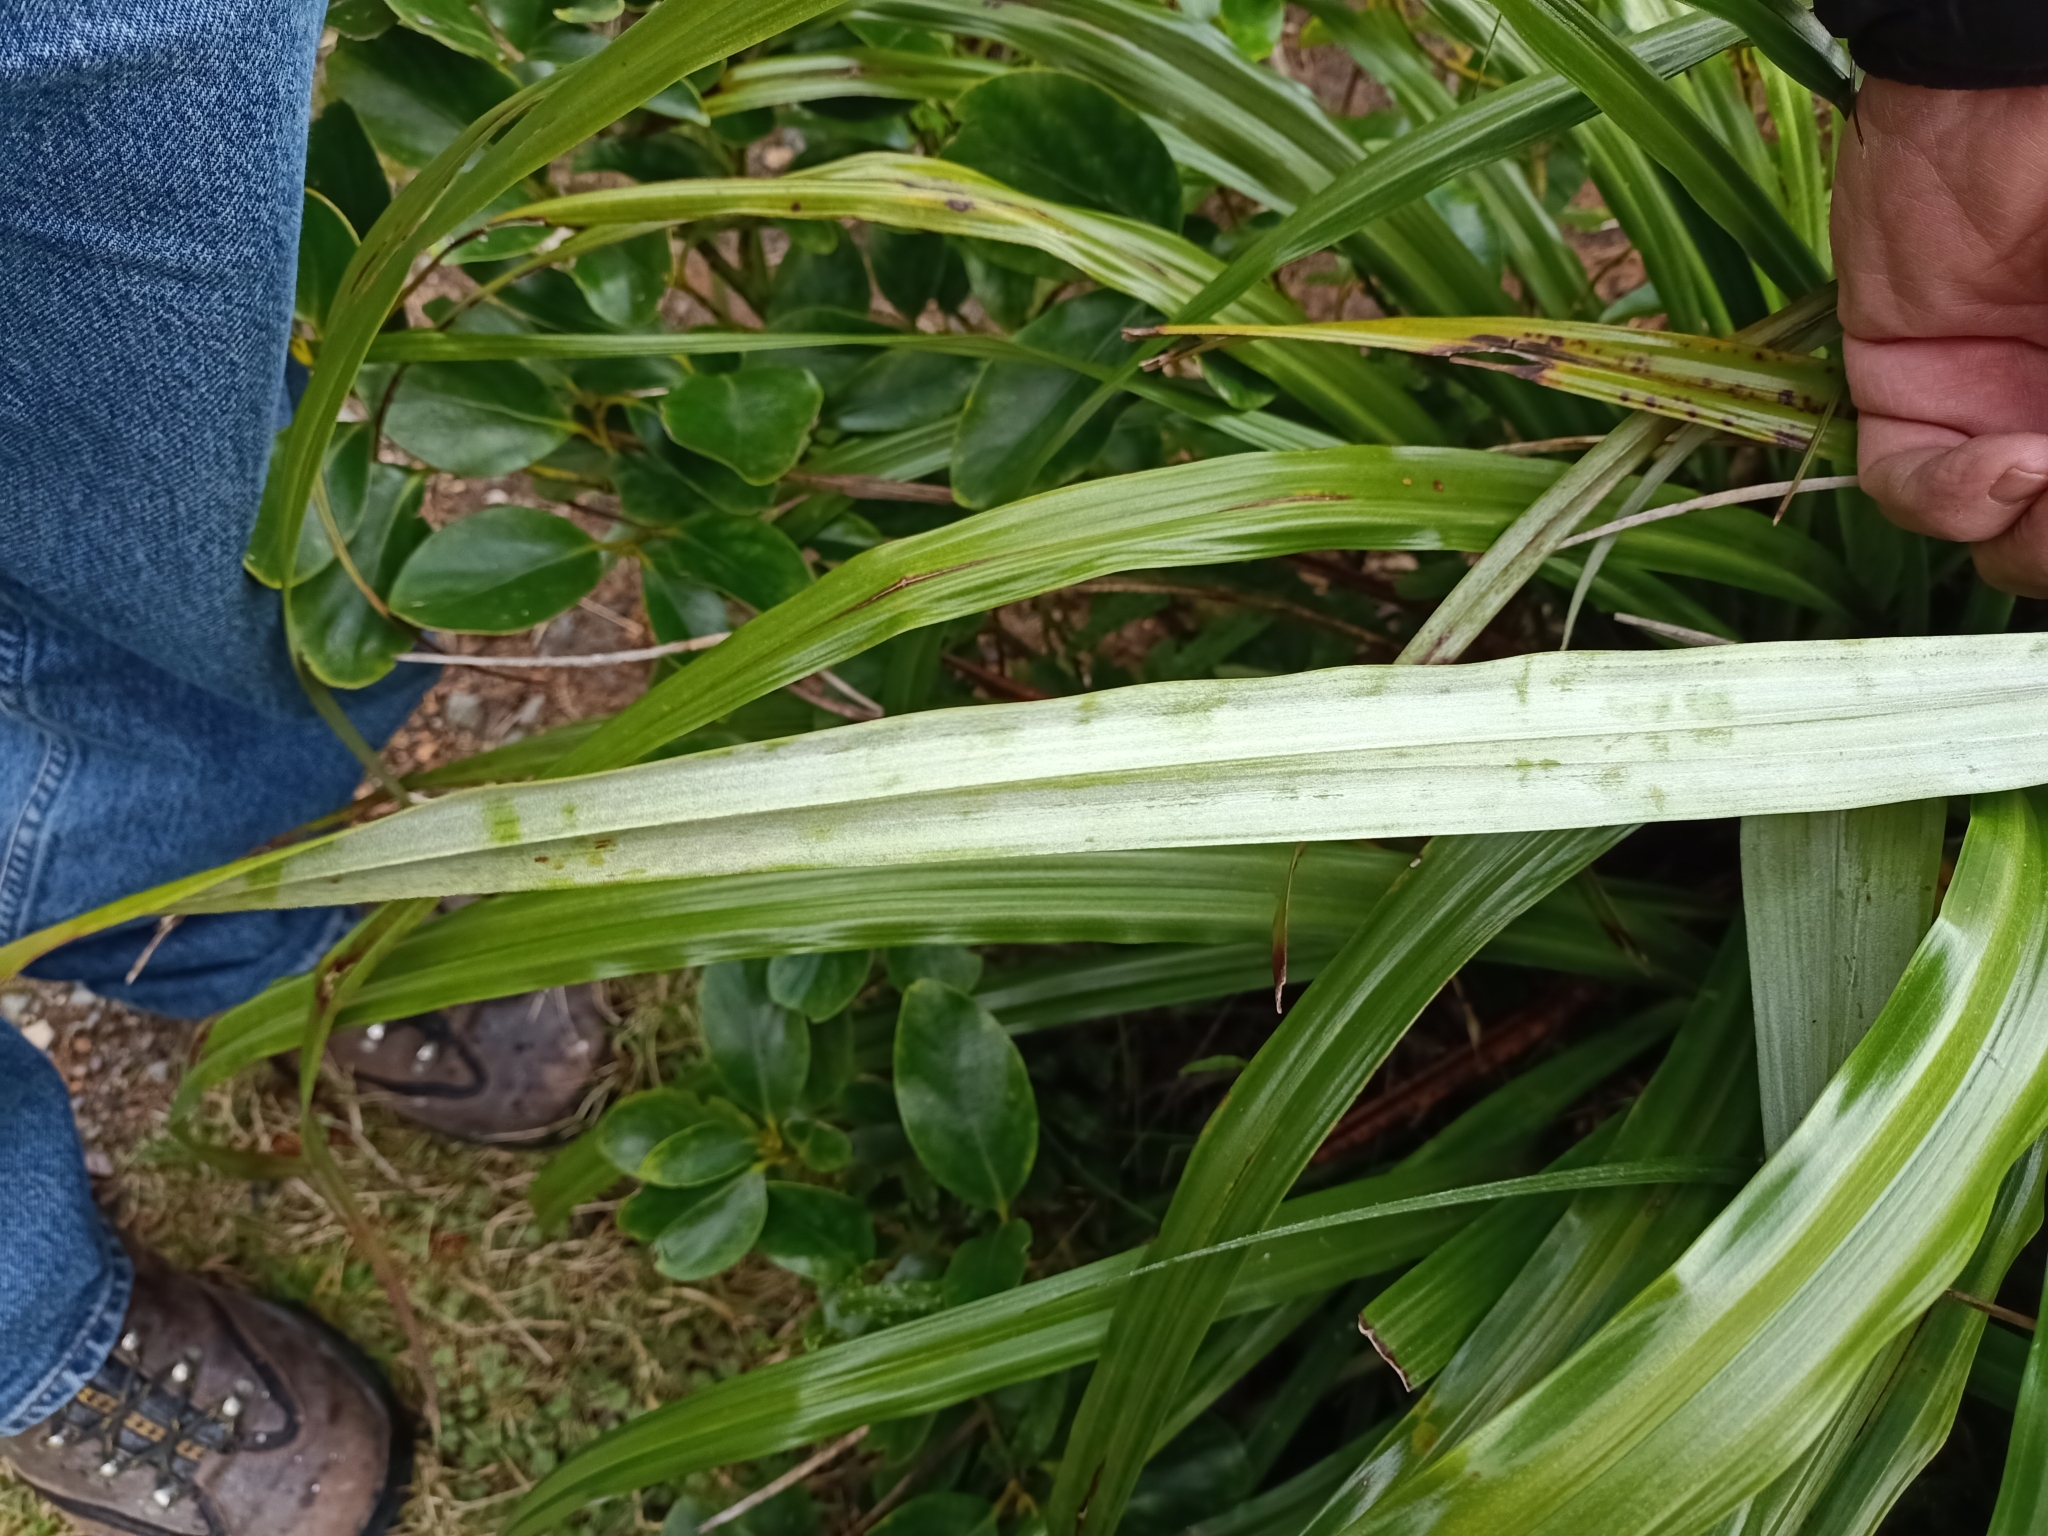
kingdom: Plantae
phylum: Tracheophyta
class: Liliopsida
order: Asparagales
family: Asteliaceae
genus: Astelia
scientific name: Astelia fragrans
